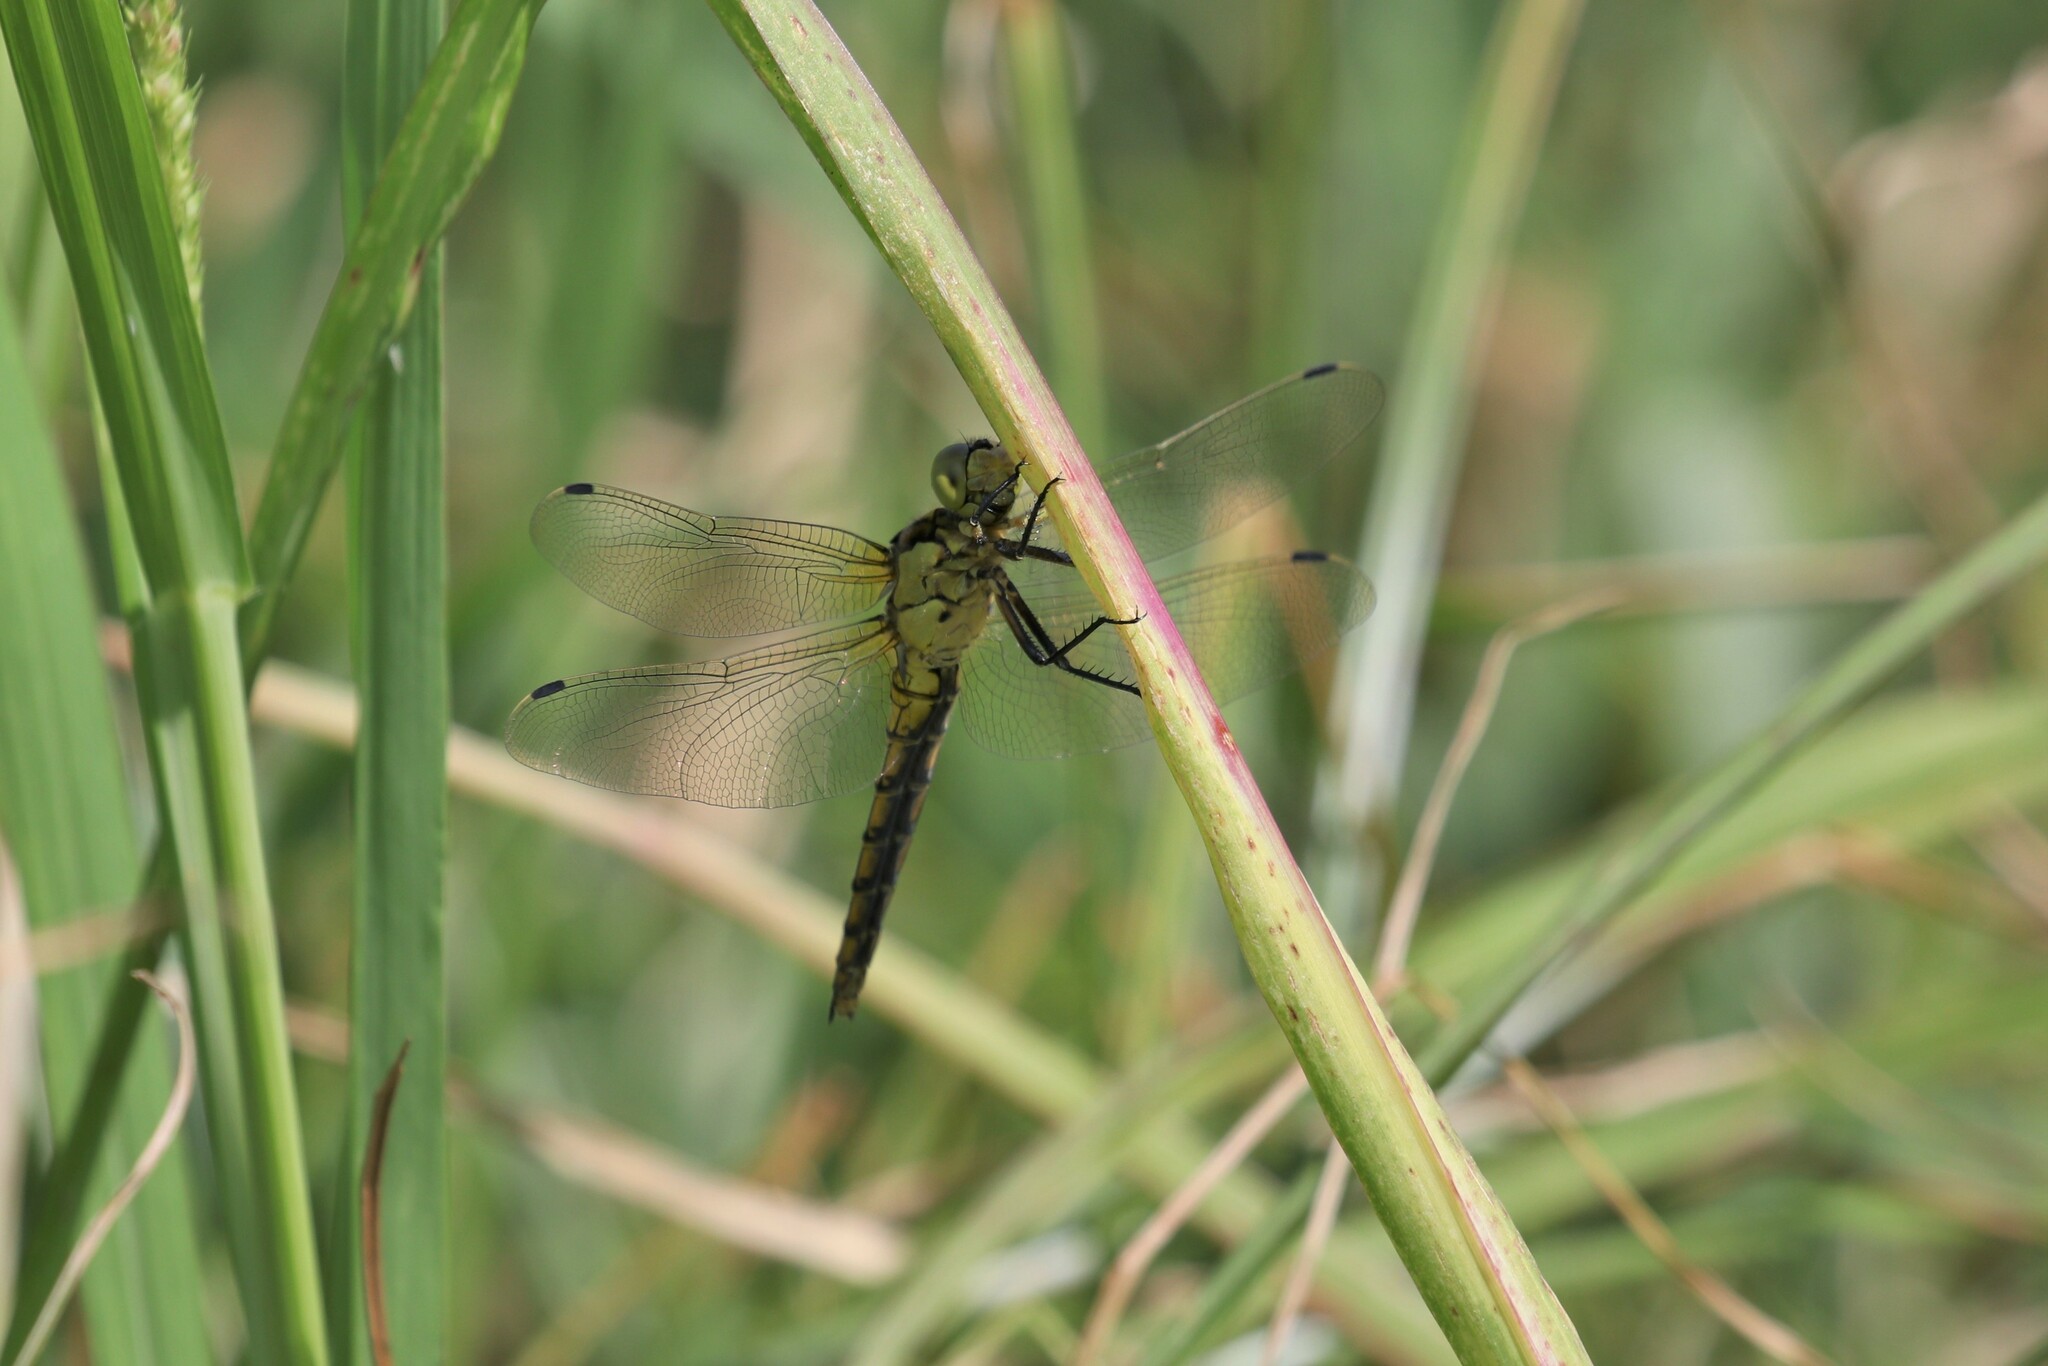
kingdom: Animalia
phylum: Arthropoda
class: Insecta
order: Odonata
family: Libellulidae
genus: Orthetrum
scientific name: Orthetrum cancellatum
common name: Black-tailed skimmer
